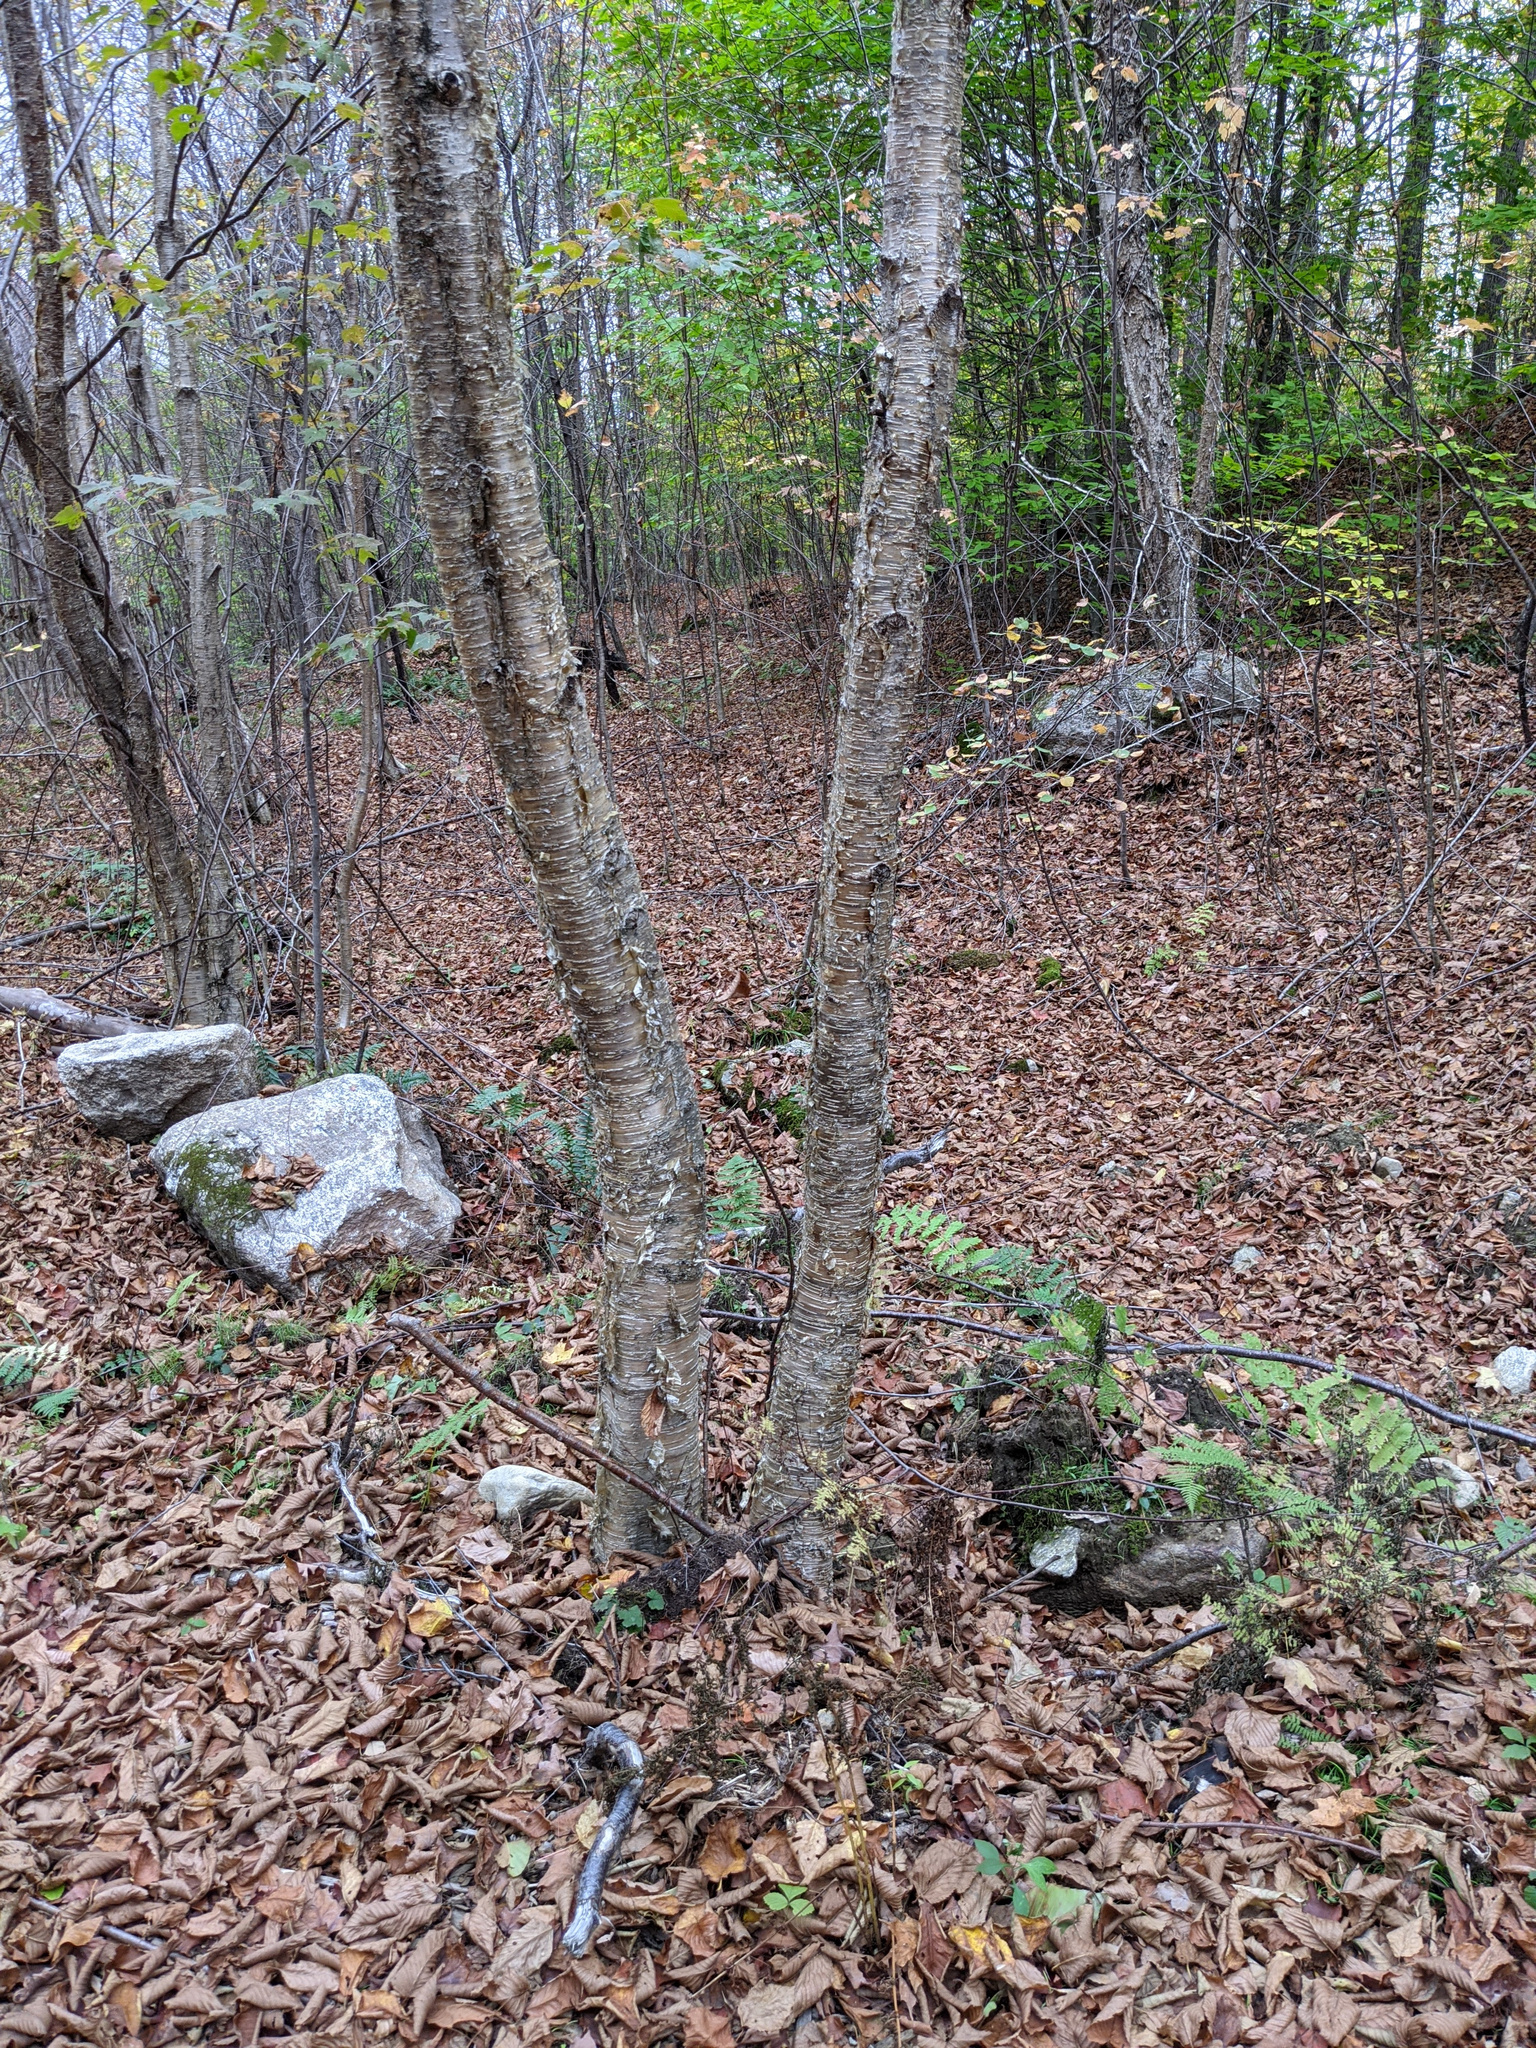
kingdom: Plantae
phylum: Tracheophyta
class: Magnoliopsida
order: Fagales
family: Betulaceae
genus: Betula
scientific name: Betula alleghaniensis
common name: Yellow birch
